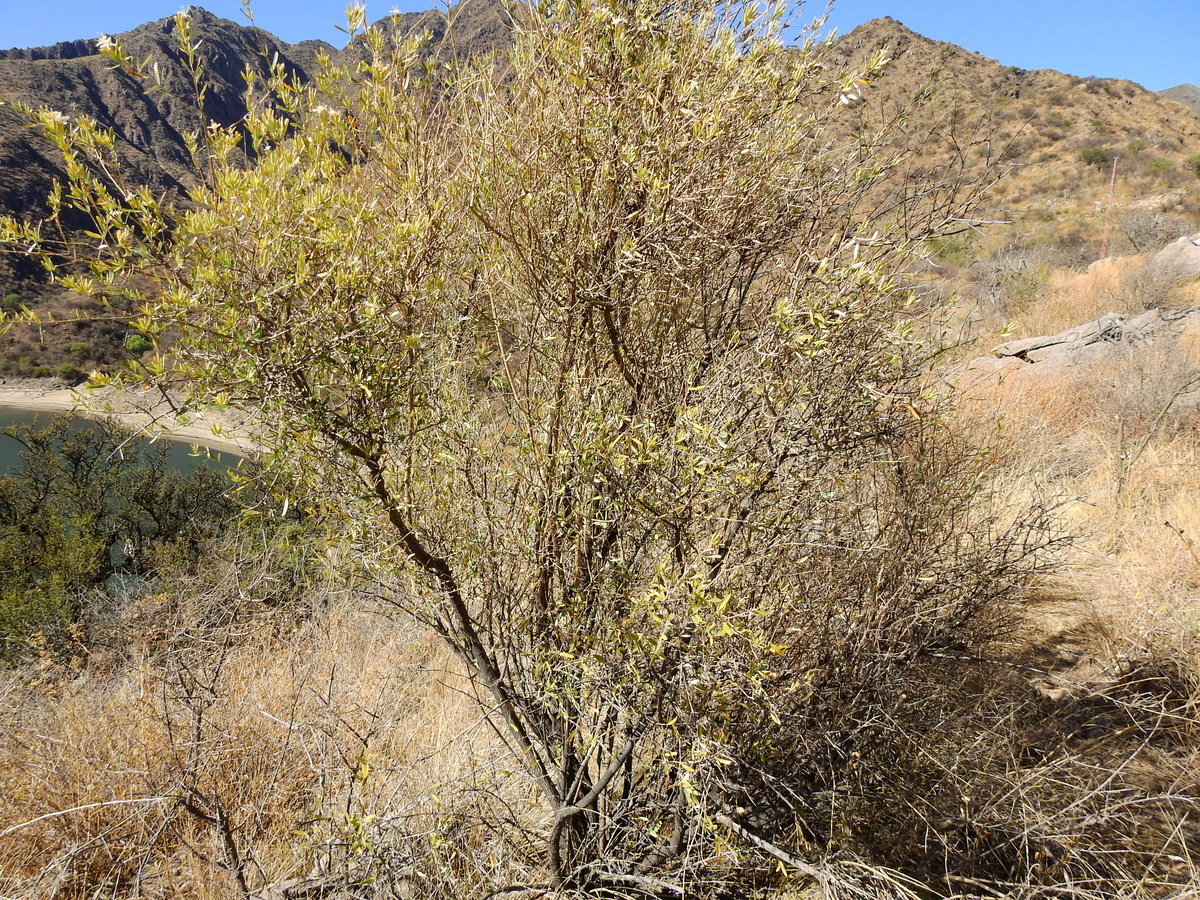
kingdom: Plantae
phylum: Tracheophyta
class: Magnoliopsida
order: Asterales
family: Asteraceae
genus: Hyaloseris
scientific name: Hyaloseris cinerea
